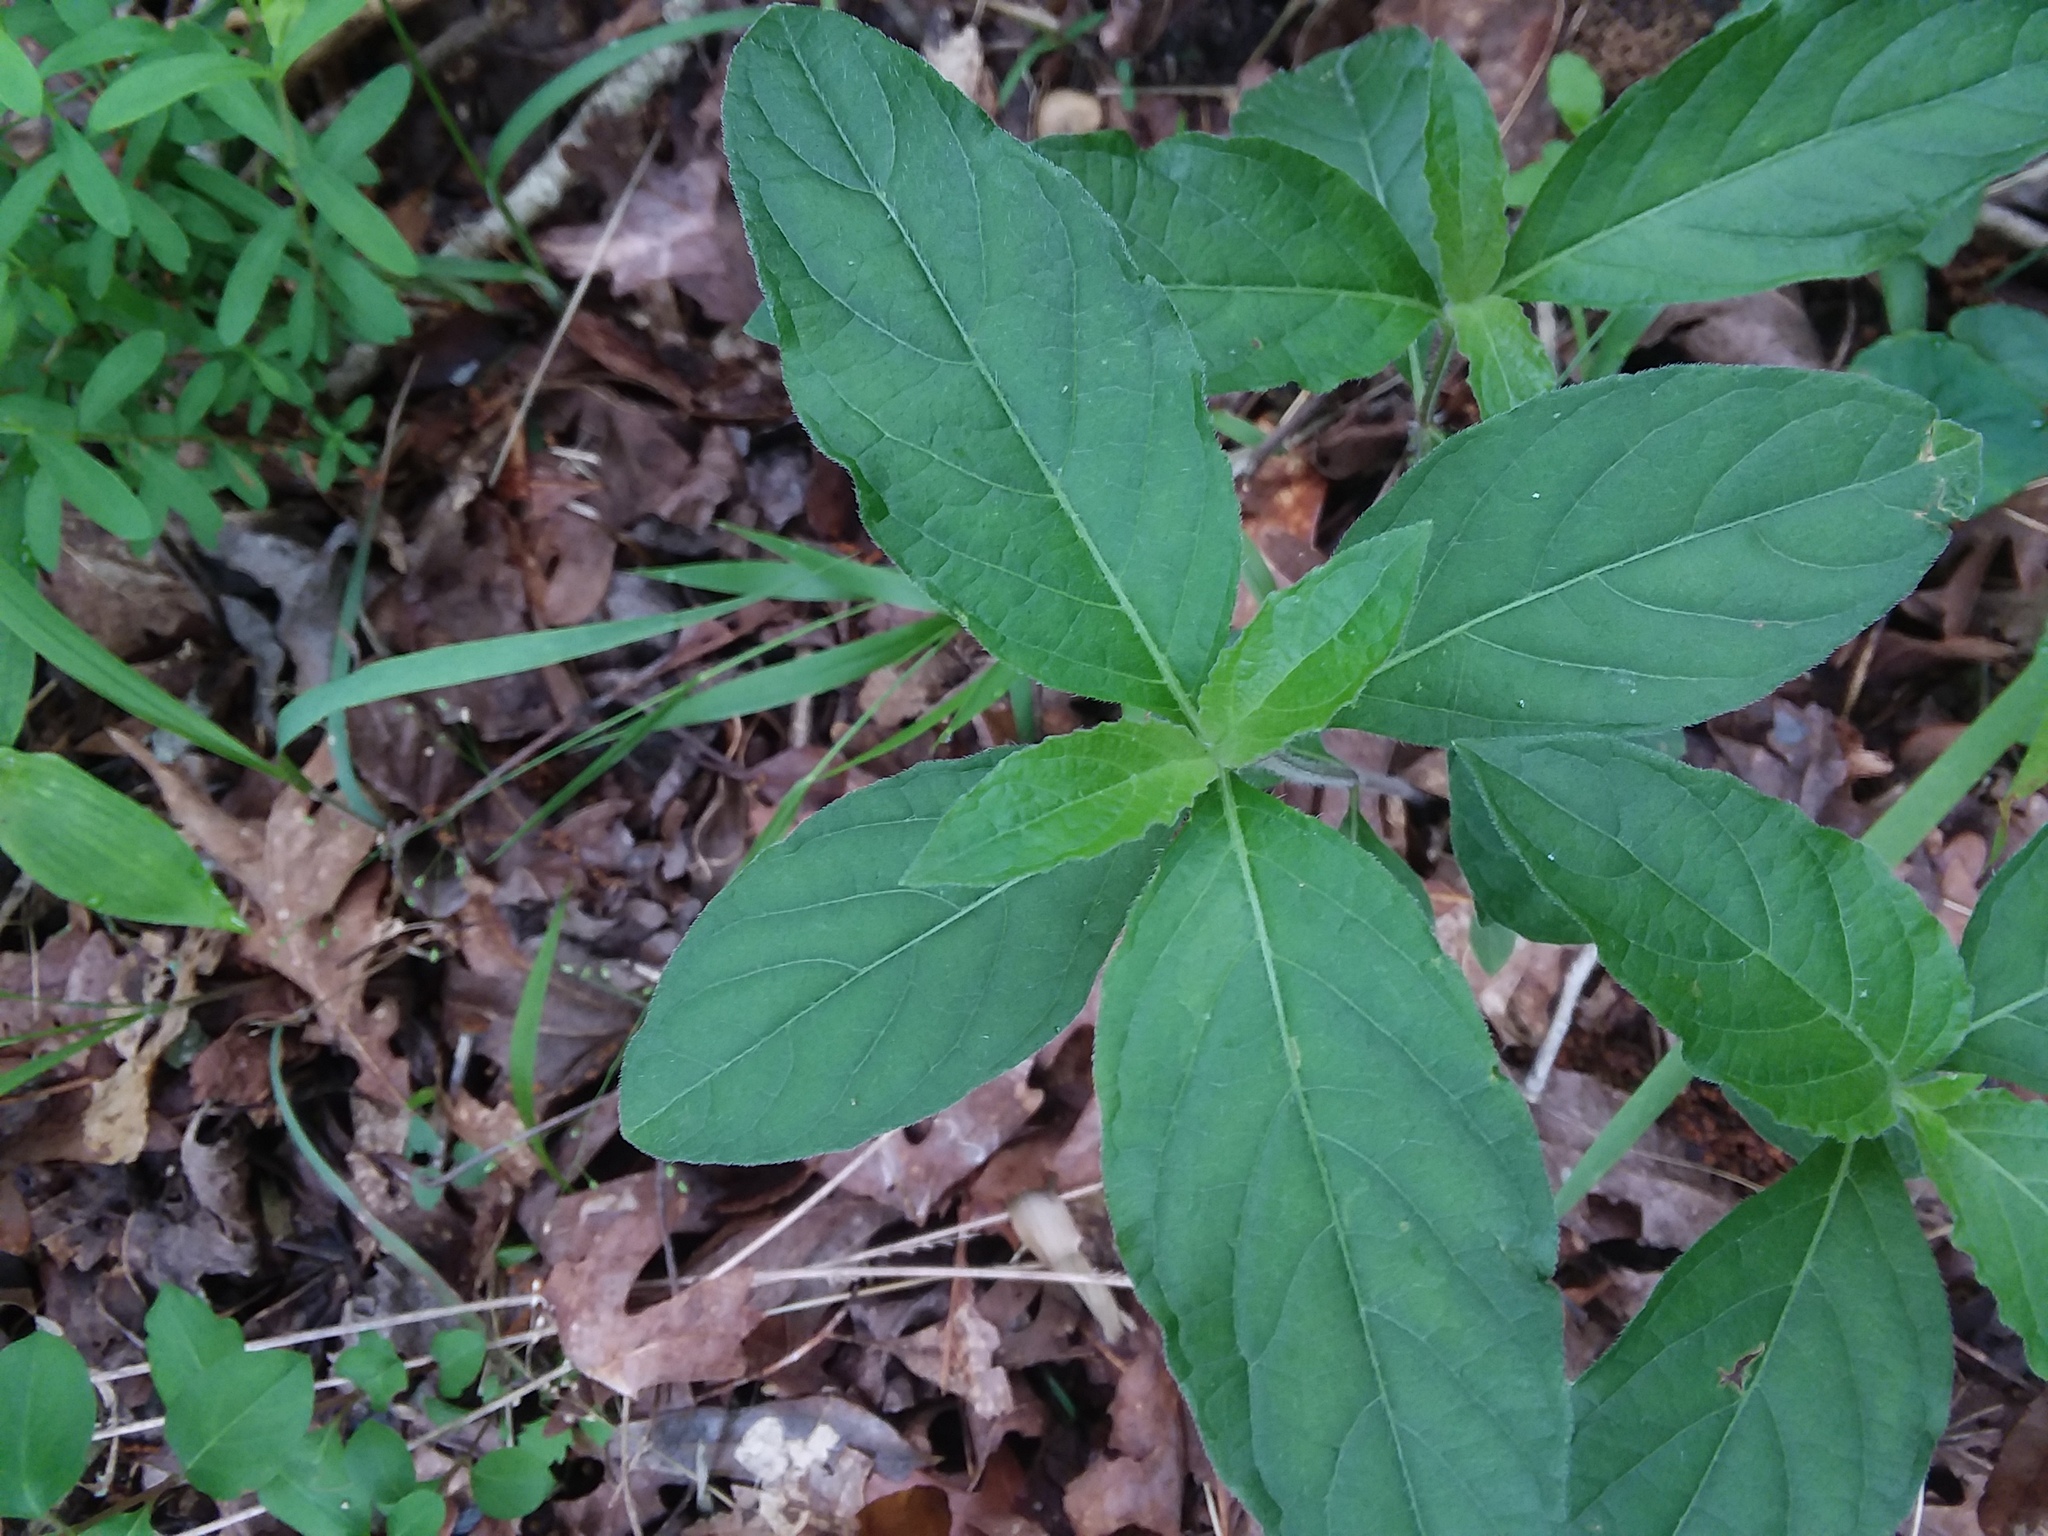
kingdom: Plantae
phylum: Tracheophyta
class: Magnoliopsida
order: Lamiales
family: Acanthaceae
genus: Ruellia
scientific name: Ruellia caroliniensis
